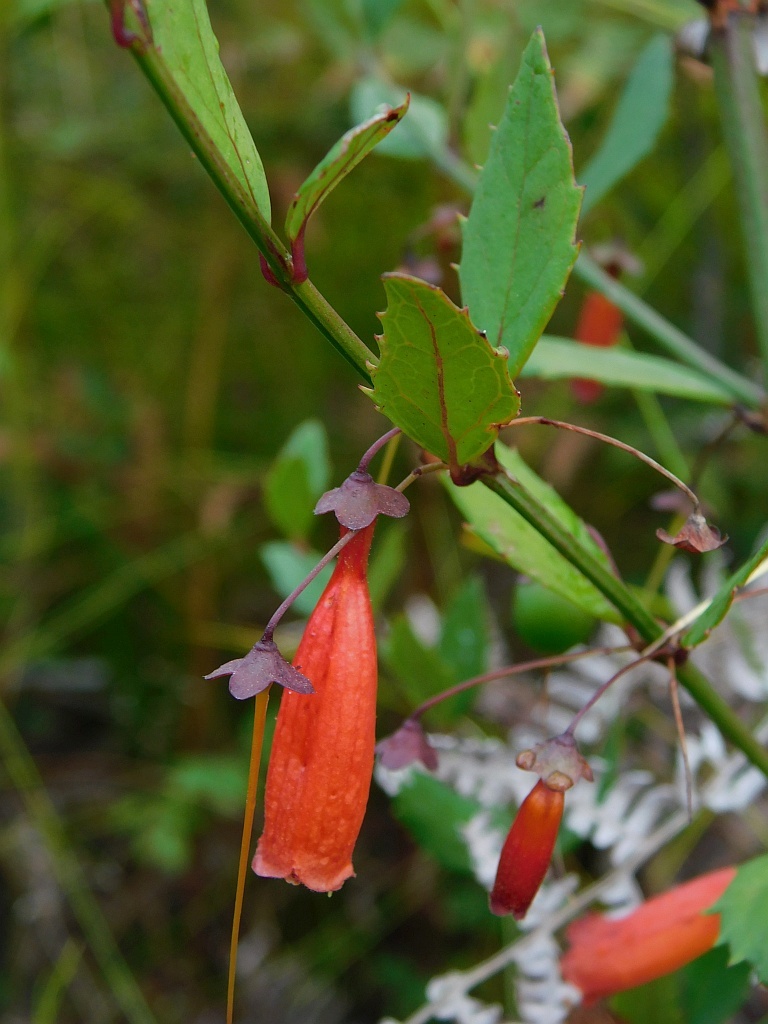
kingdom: Plantae
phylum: Tracheophyta
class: Magnoliopsida
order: Lamiales
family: Stilbaceae
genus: Halleria
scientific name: Halleria elliptica
